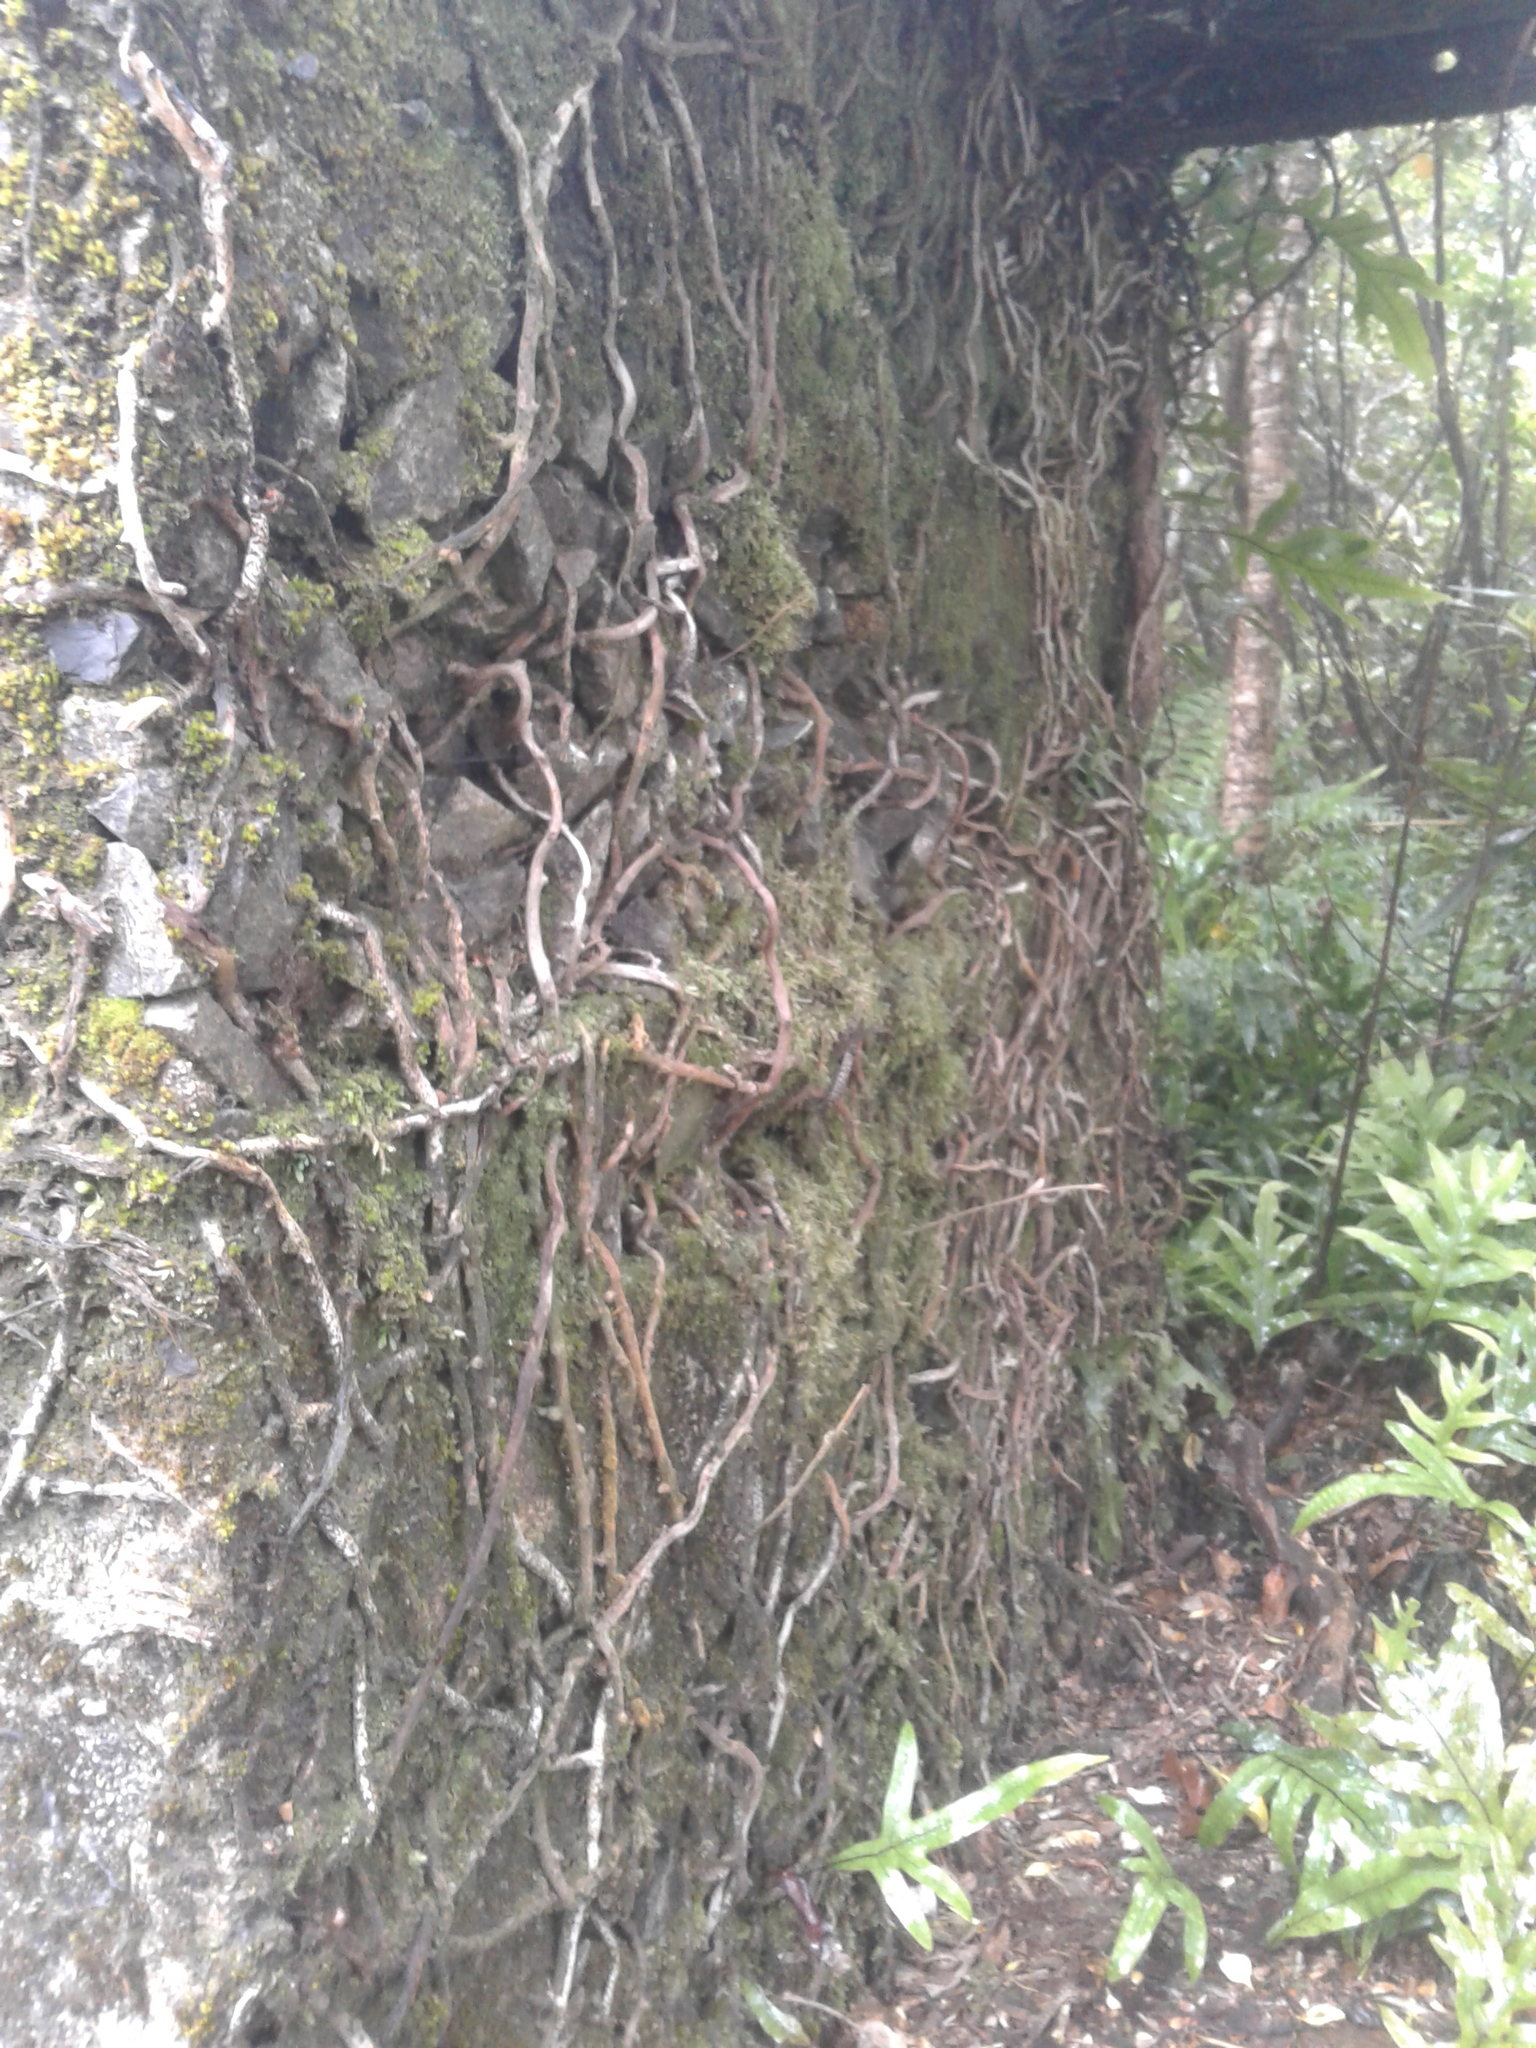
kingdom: Plantae
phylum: Tracheophyta
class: Polypodiopsida
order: Polypodiales
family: Polypodiaceae
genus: Lecanopteris
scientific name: Lecanopteris pustulata
